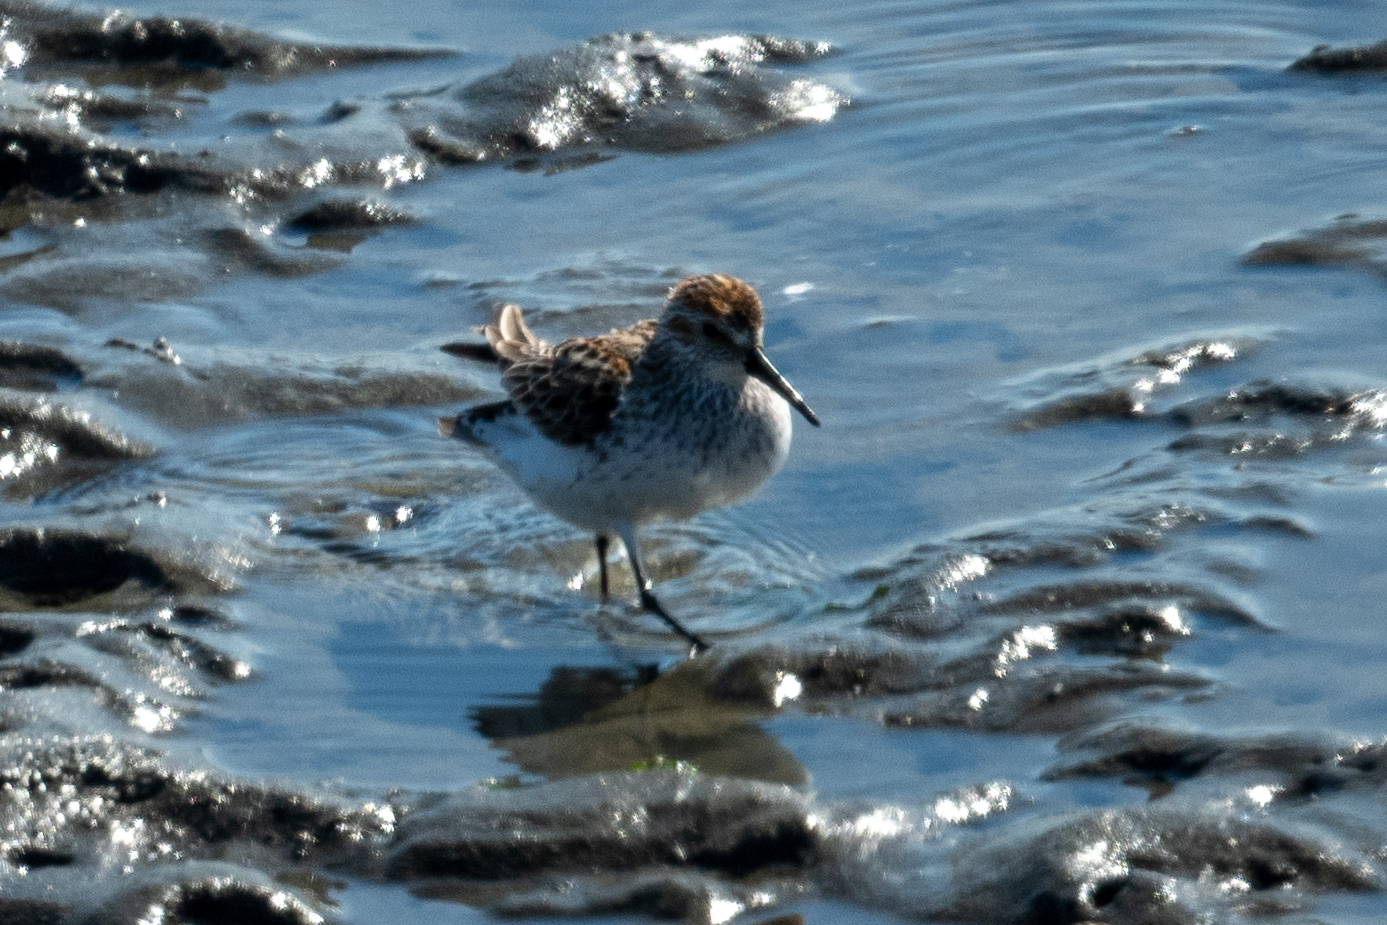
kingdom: Animalia
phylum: Chordata
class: Aves
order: Charadriiformes
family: Scolopacidae
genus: Calidris
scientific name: Calidris mauri
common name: Western sandpiper
